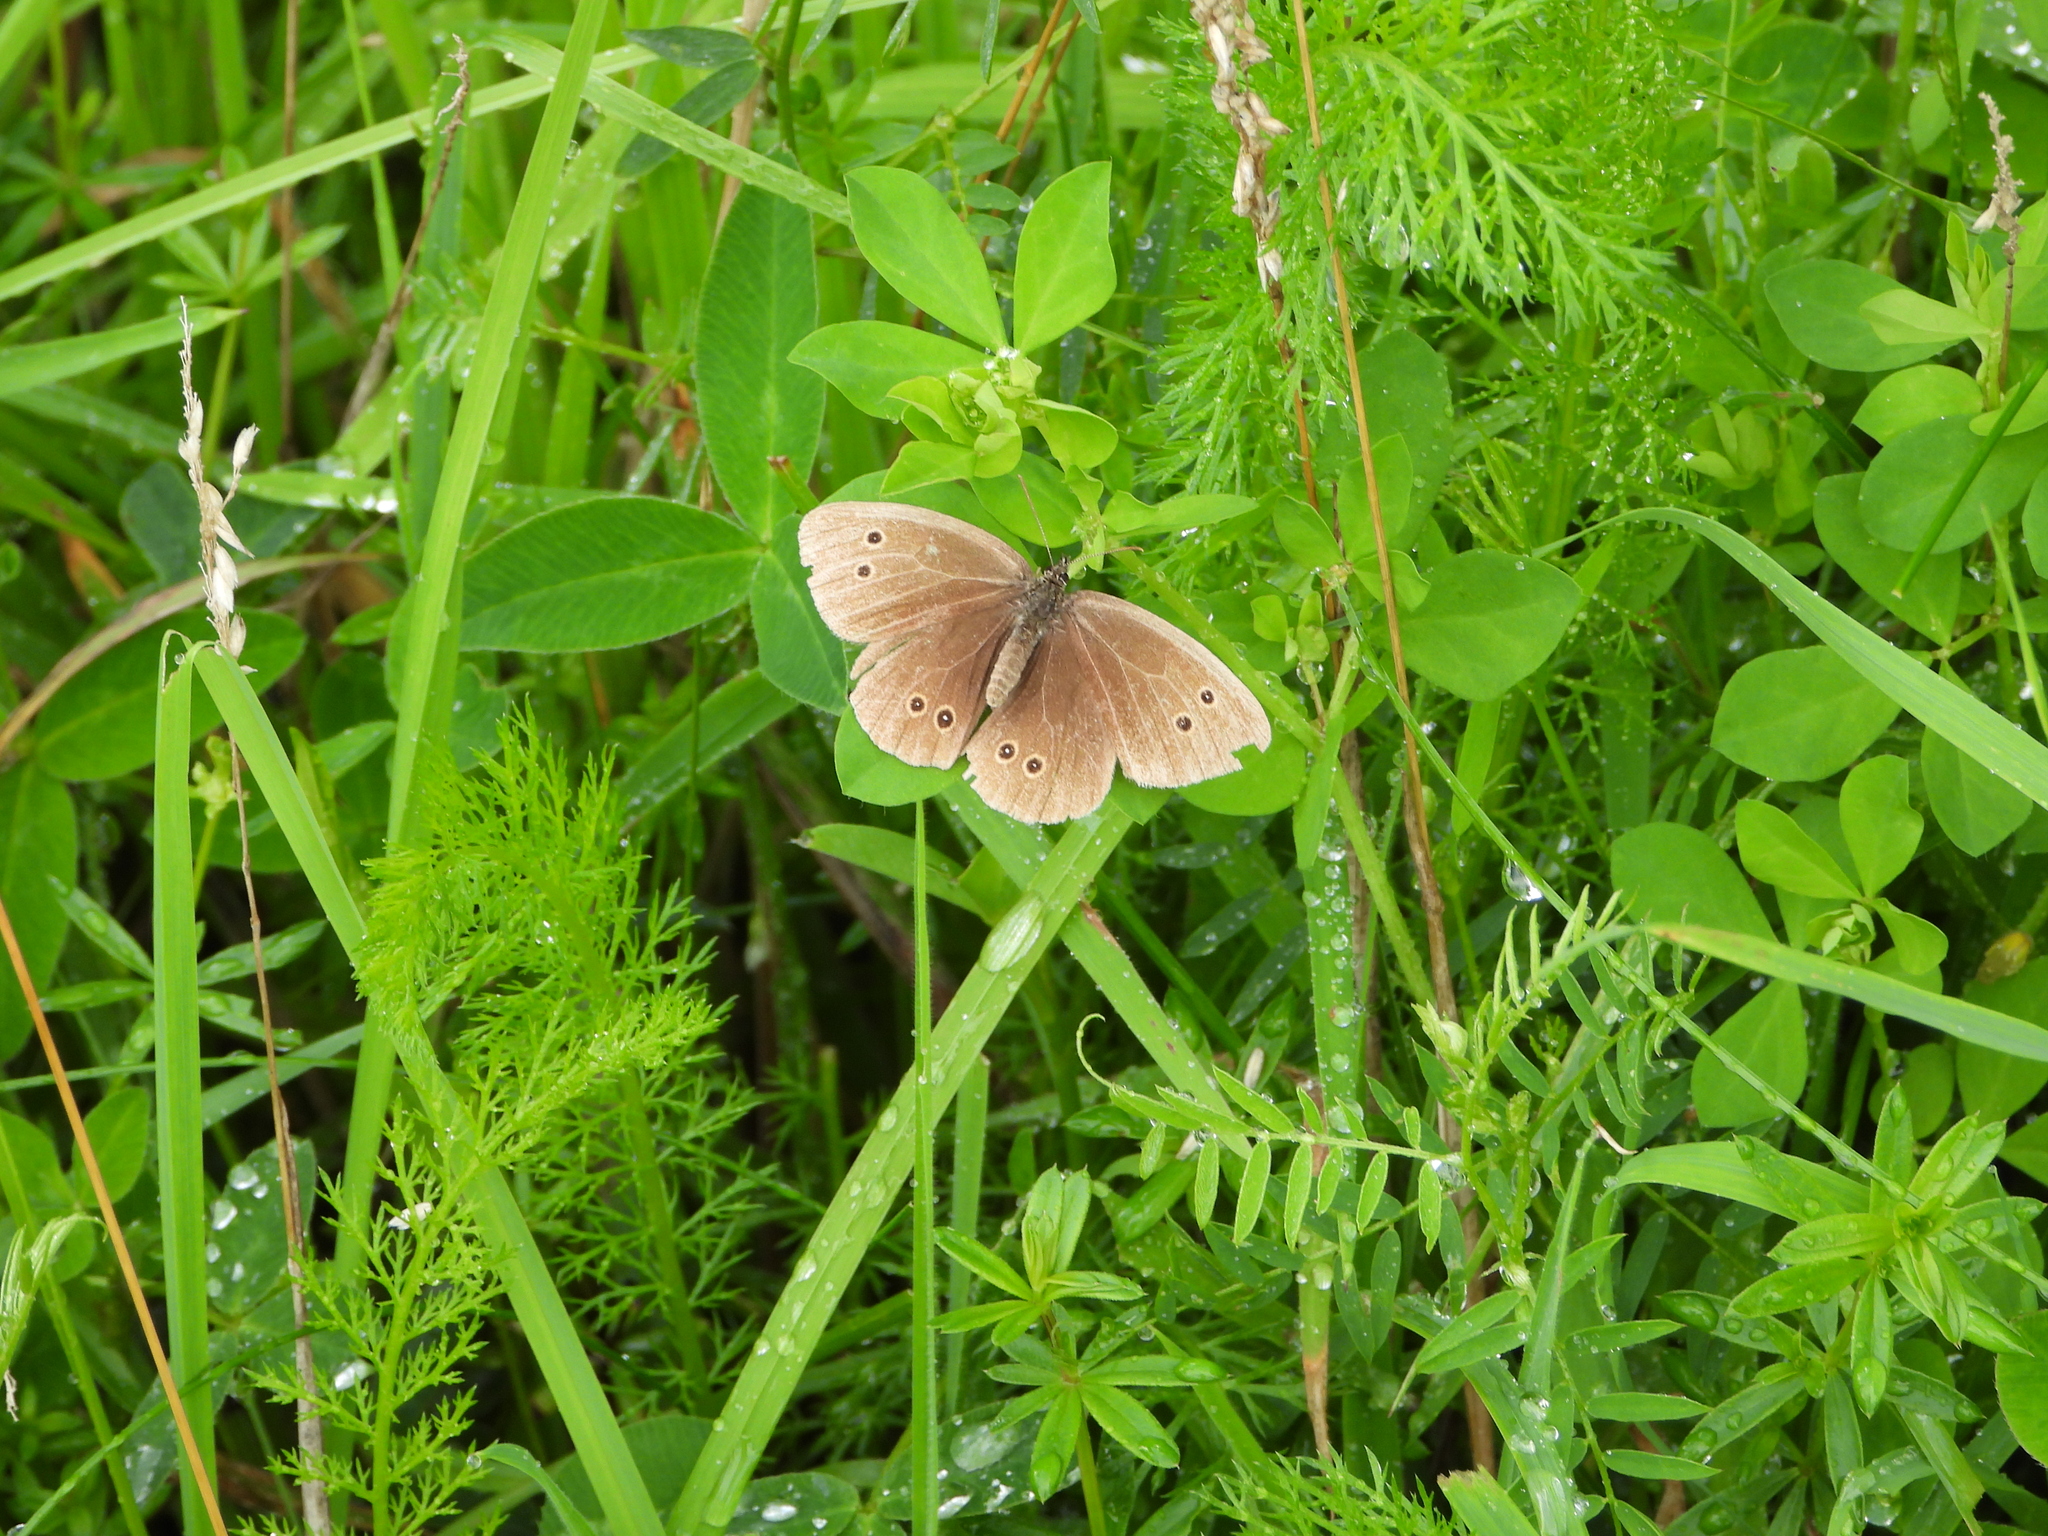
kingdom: Animalia
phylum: Arthropoda
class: Insecta
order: Lepidoptera
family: Nymphalidae
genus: Aphantopus
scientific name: Aphantopus hyperantus
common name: Ringlet
